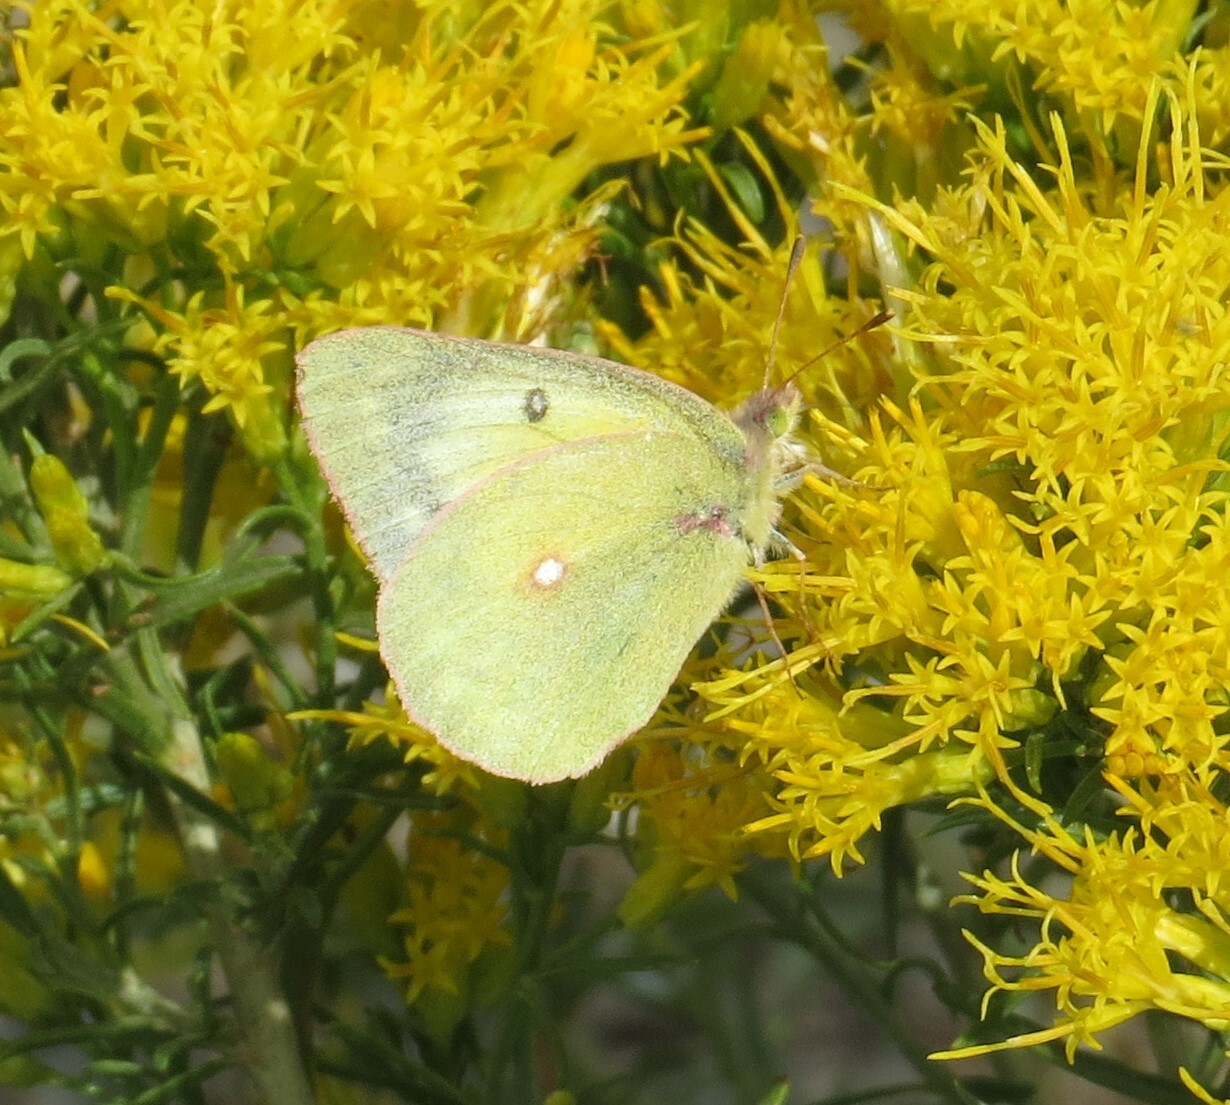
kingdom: Animalia
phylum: Arthropoda
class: Insecta
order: Lepidoptera
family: Pieridae
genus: Colias
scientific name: Colias philodice
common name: Clouded sulphur
